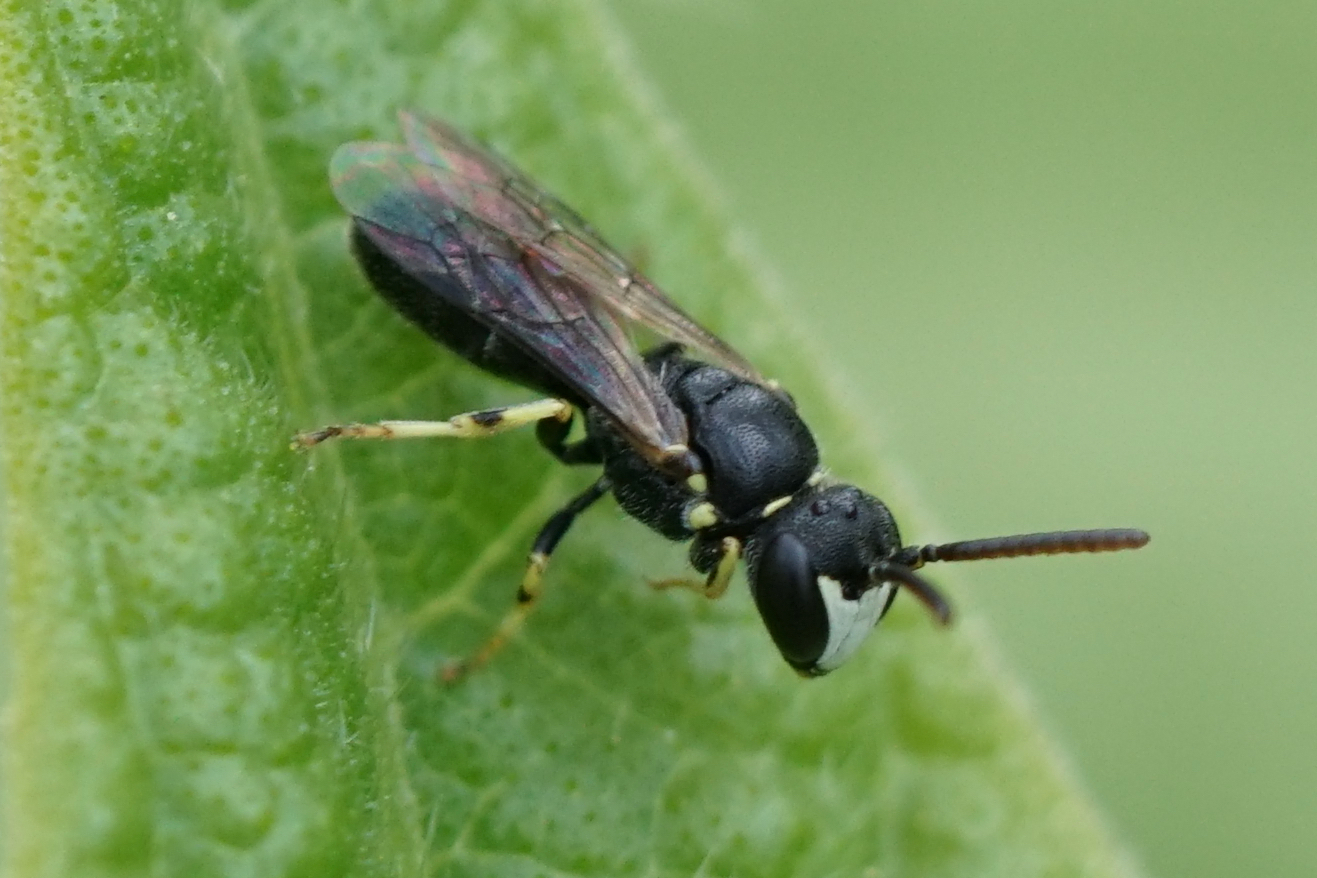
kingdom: Animalia
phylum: Arthropoda
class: Insecta
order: Hymenoptera
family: Colletidae
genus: Hylaeus
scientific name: Hylaeus pictipes
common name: Little yellow-face bee
